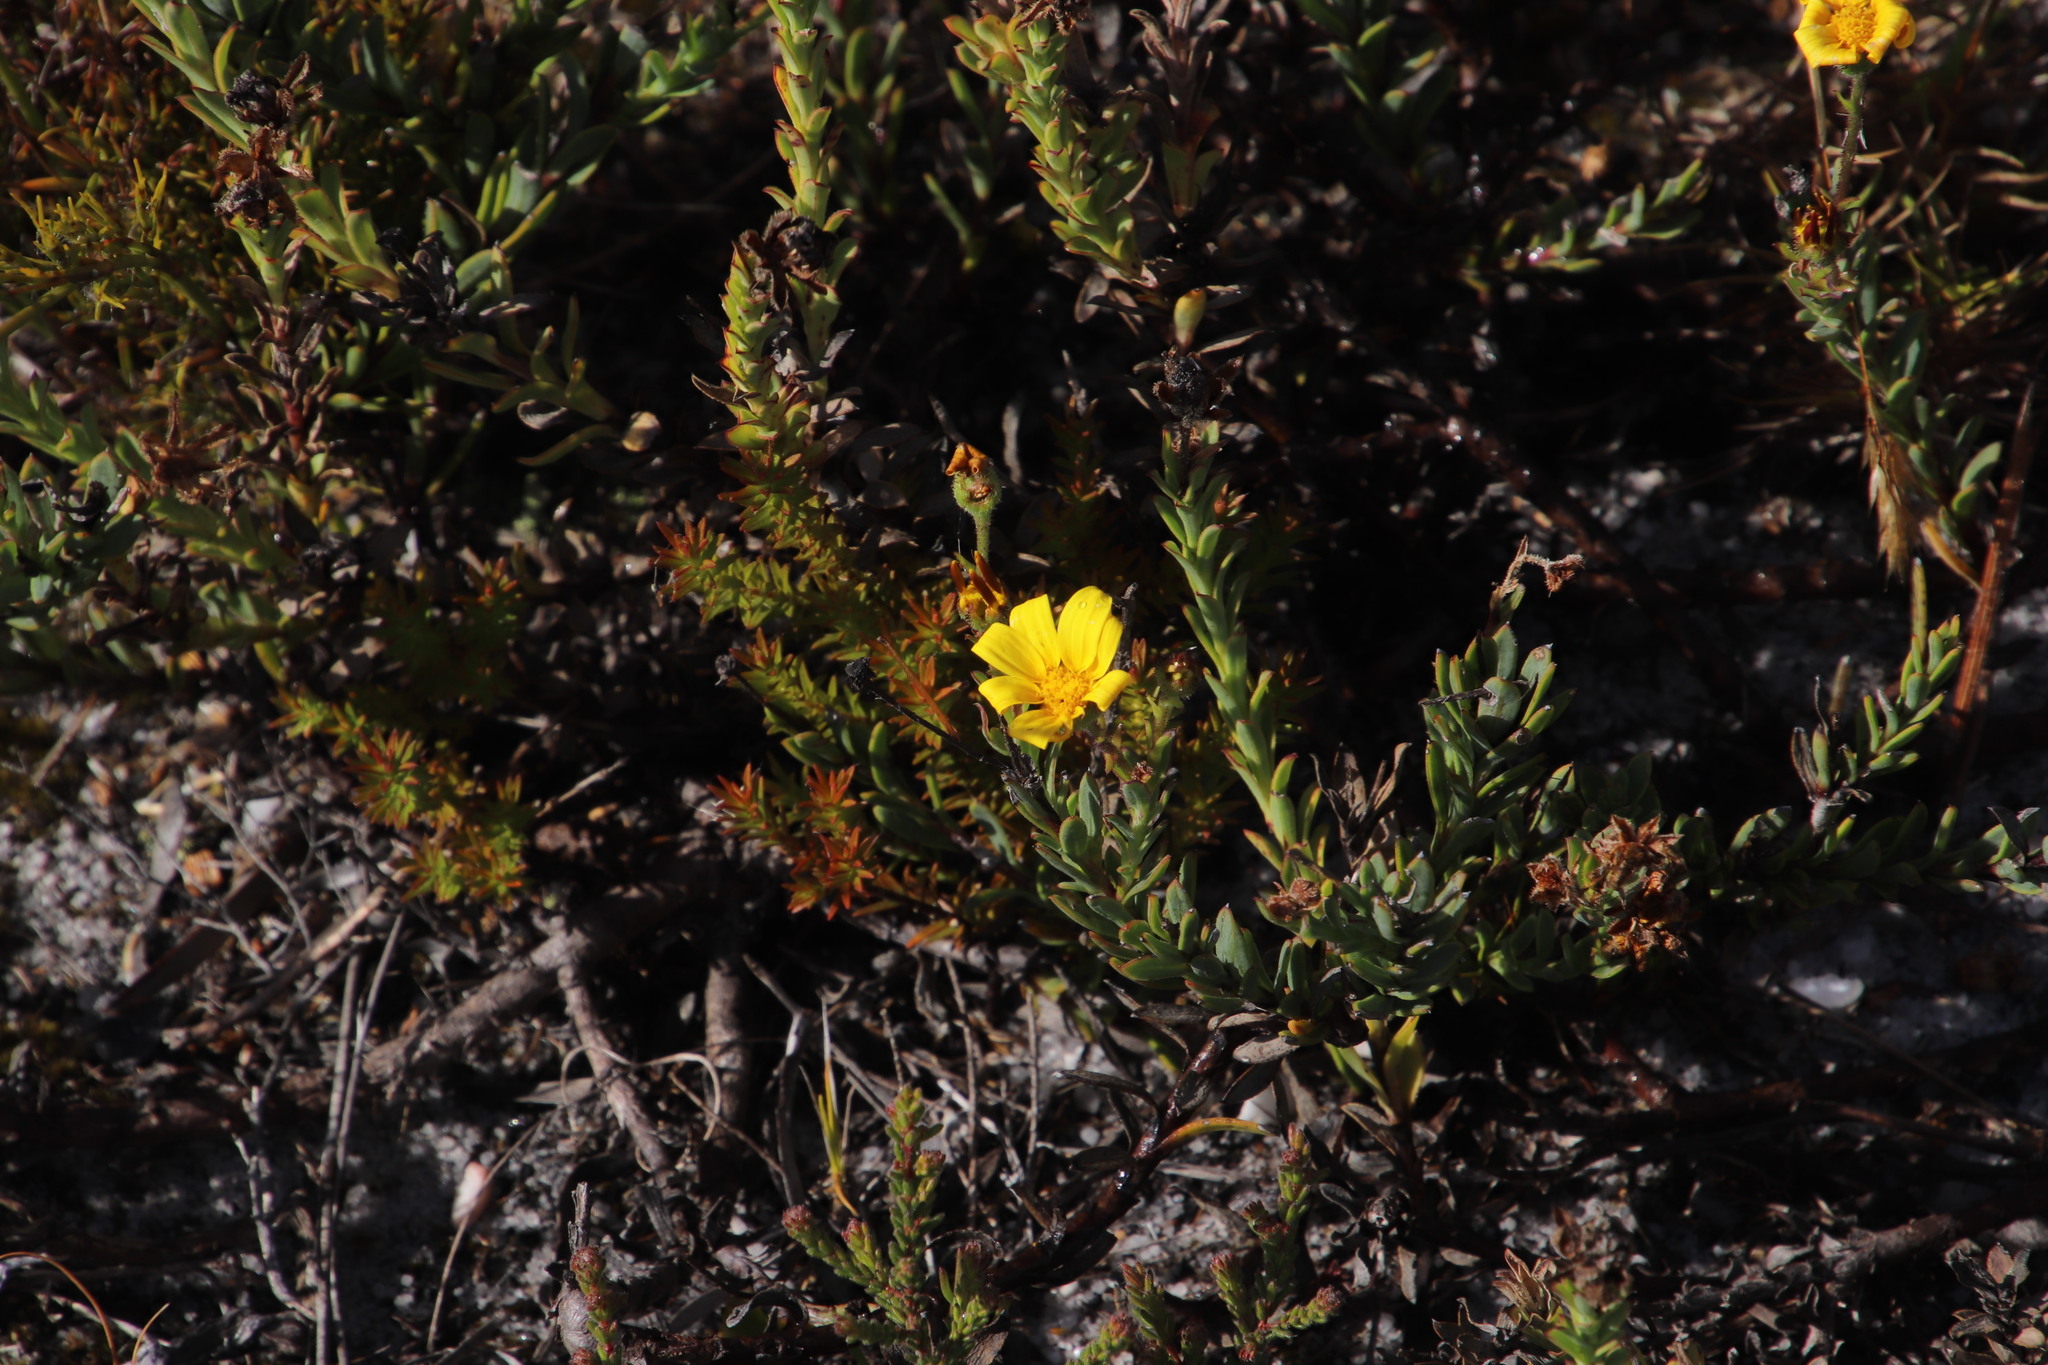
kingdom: Plantae
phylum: Tracheophyta
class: Magnoliopsida
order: Asterales
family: Asteraceae
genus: Osteospermum
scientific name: Osteospermum polygaloides
